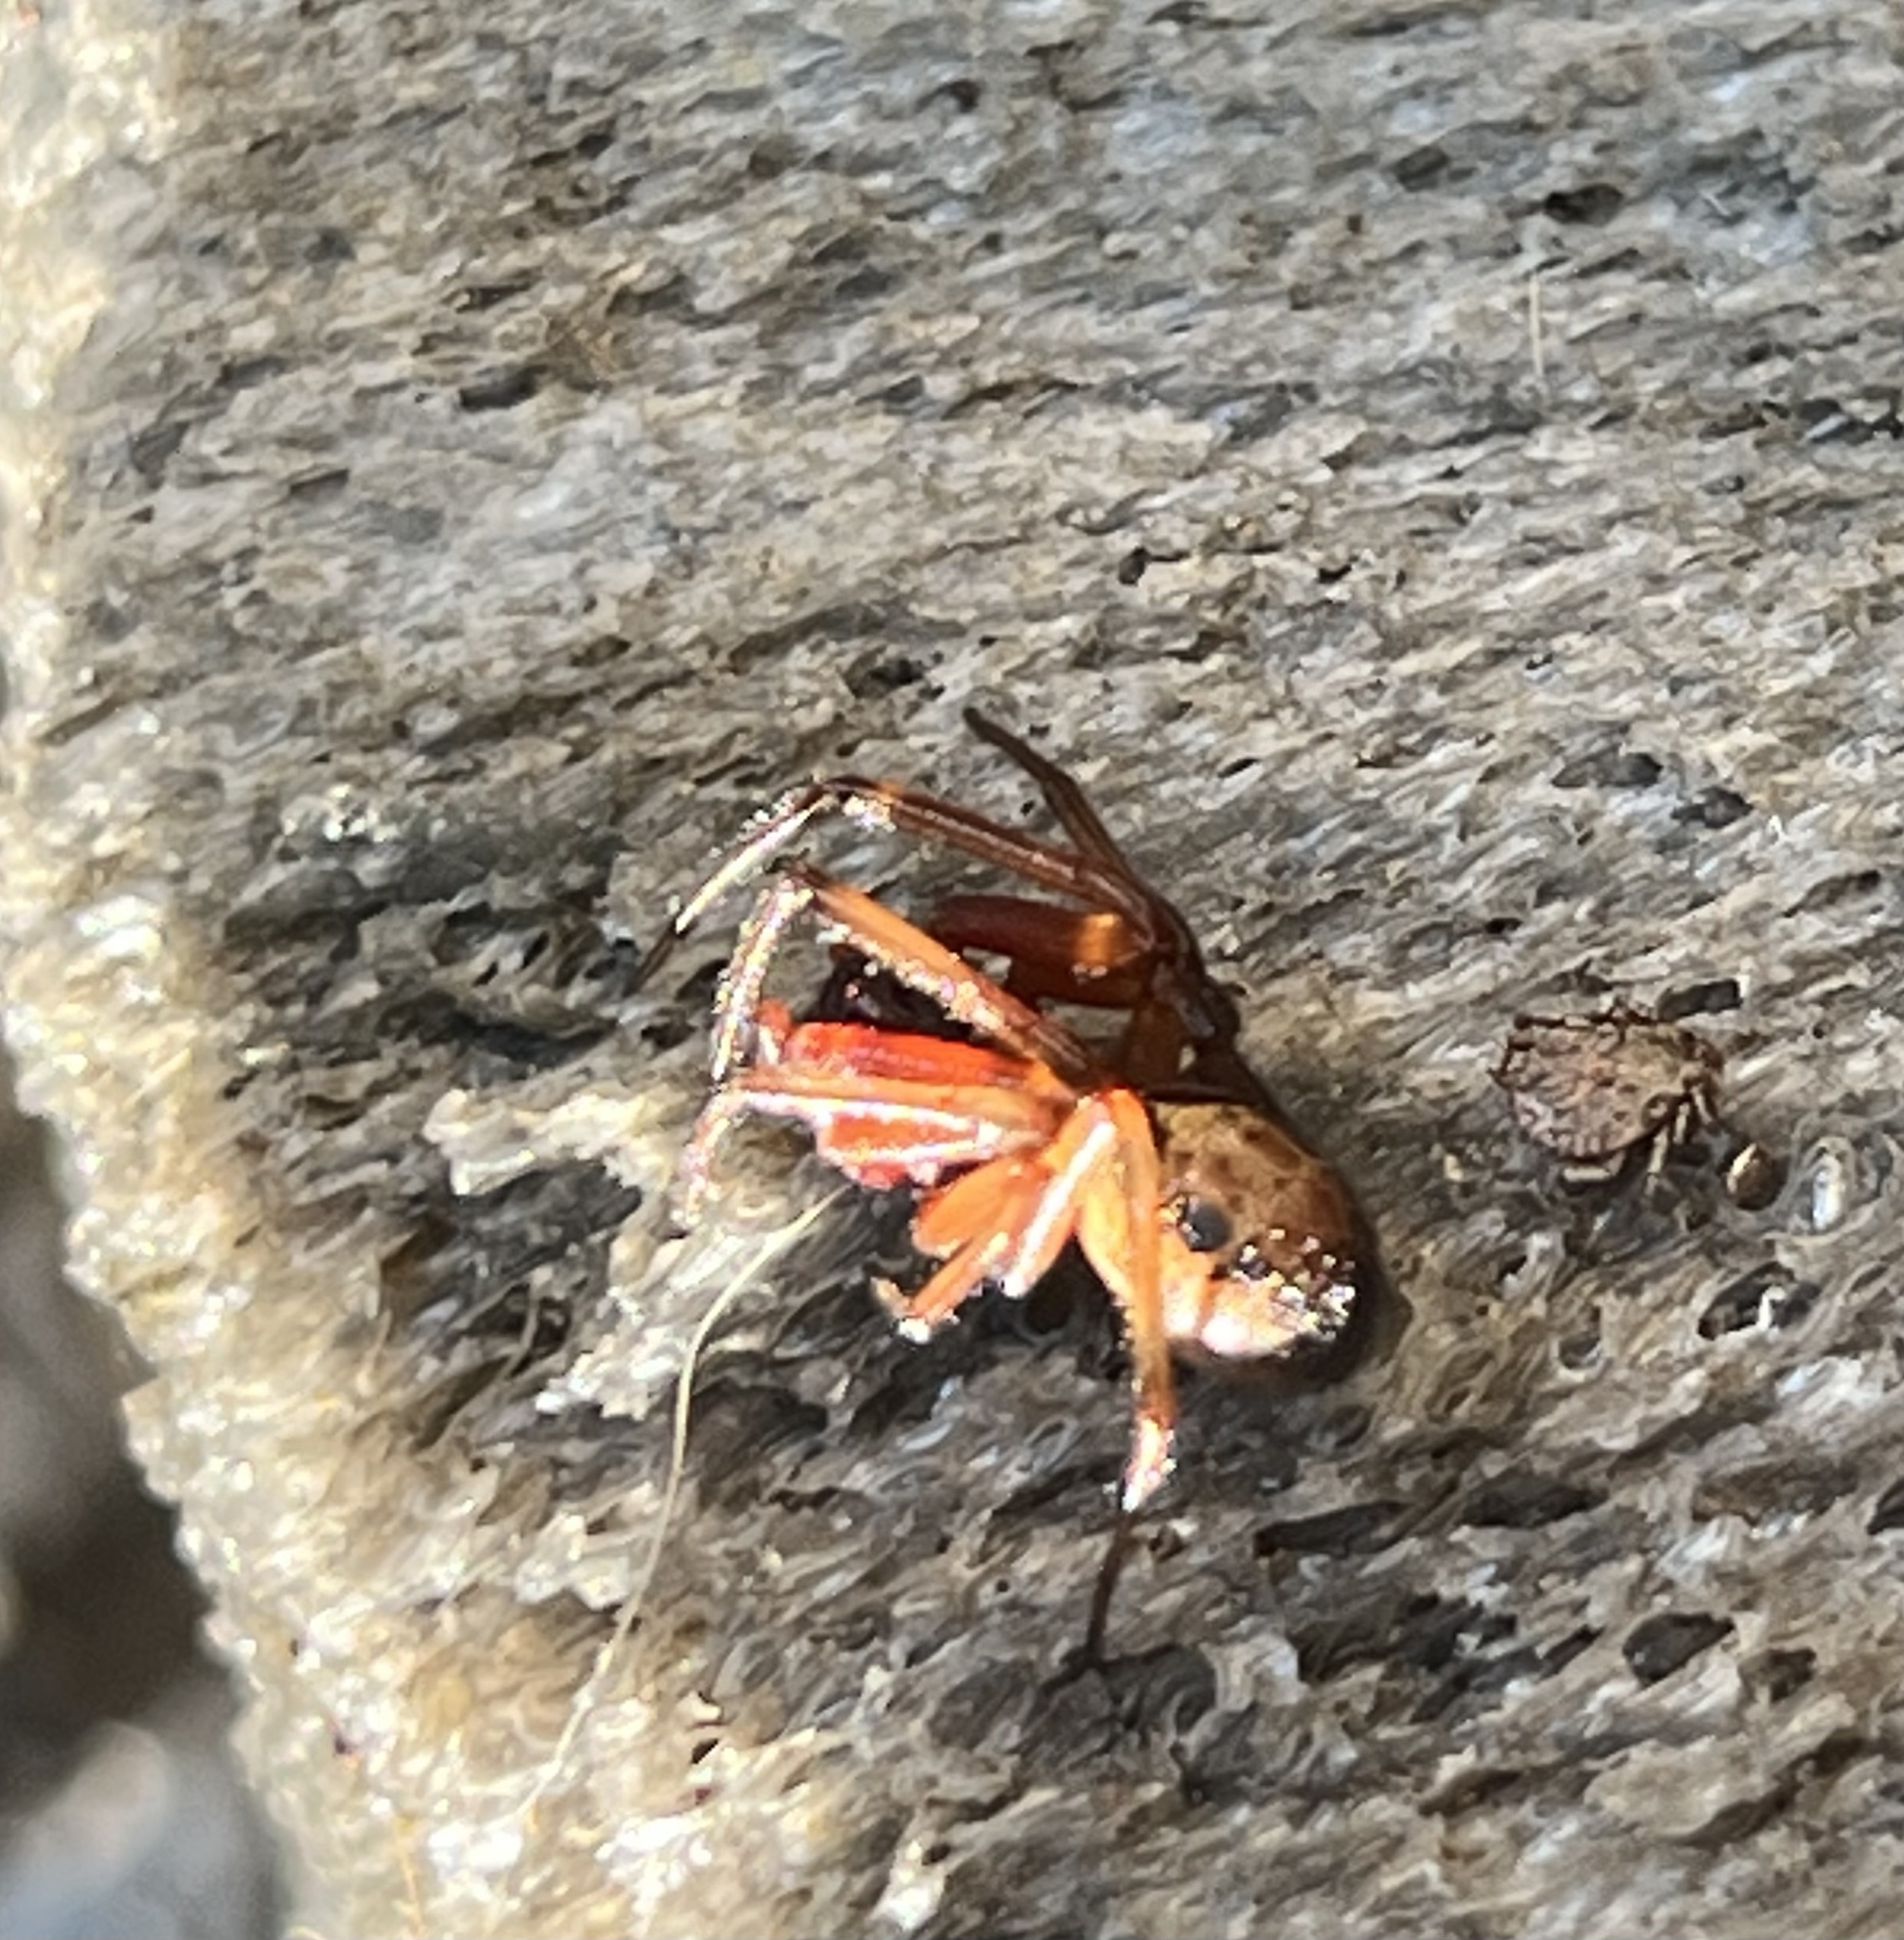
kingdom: Animalia
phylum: Arthropoda
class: Arachnida
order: Araneae
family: Theridiidae
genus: Steatoda
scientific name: Steatoda nobilis
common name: Cobweb weaver
